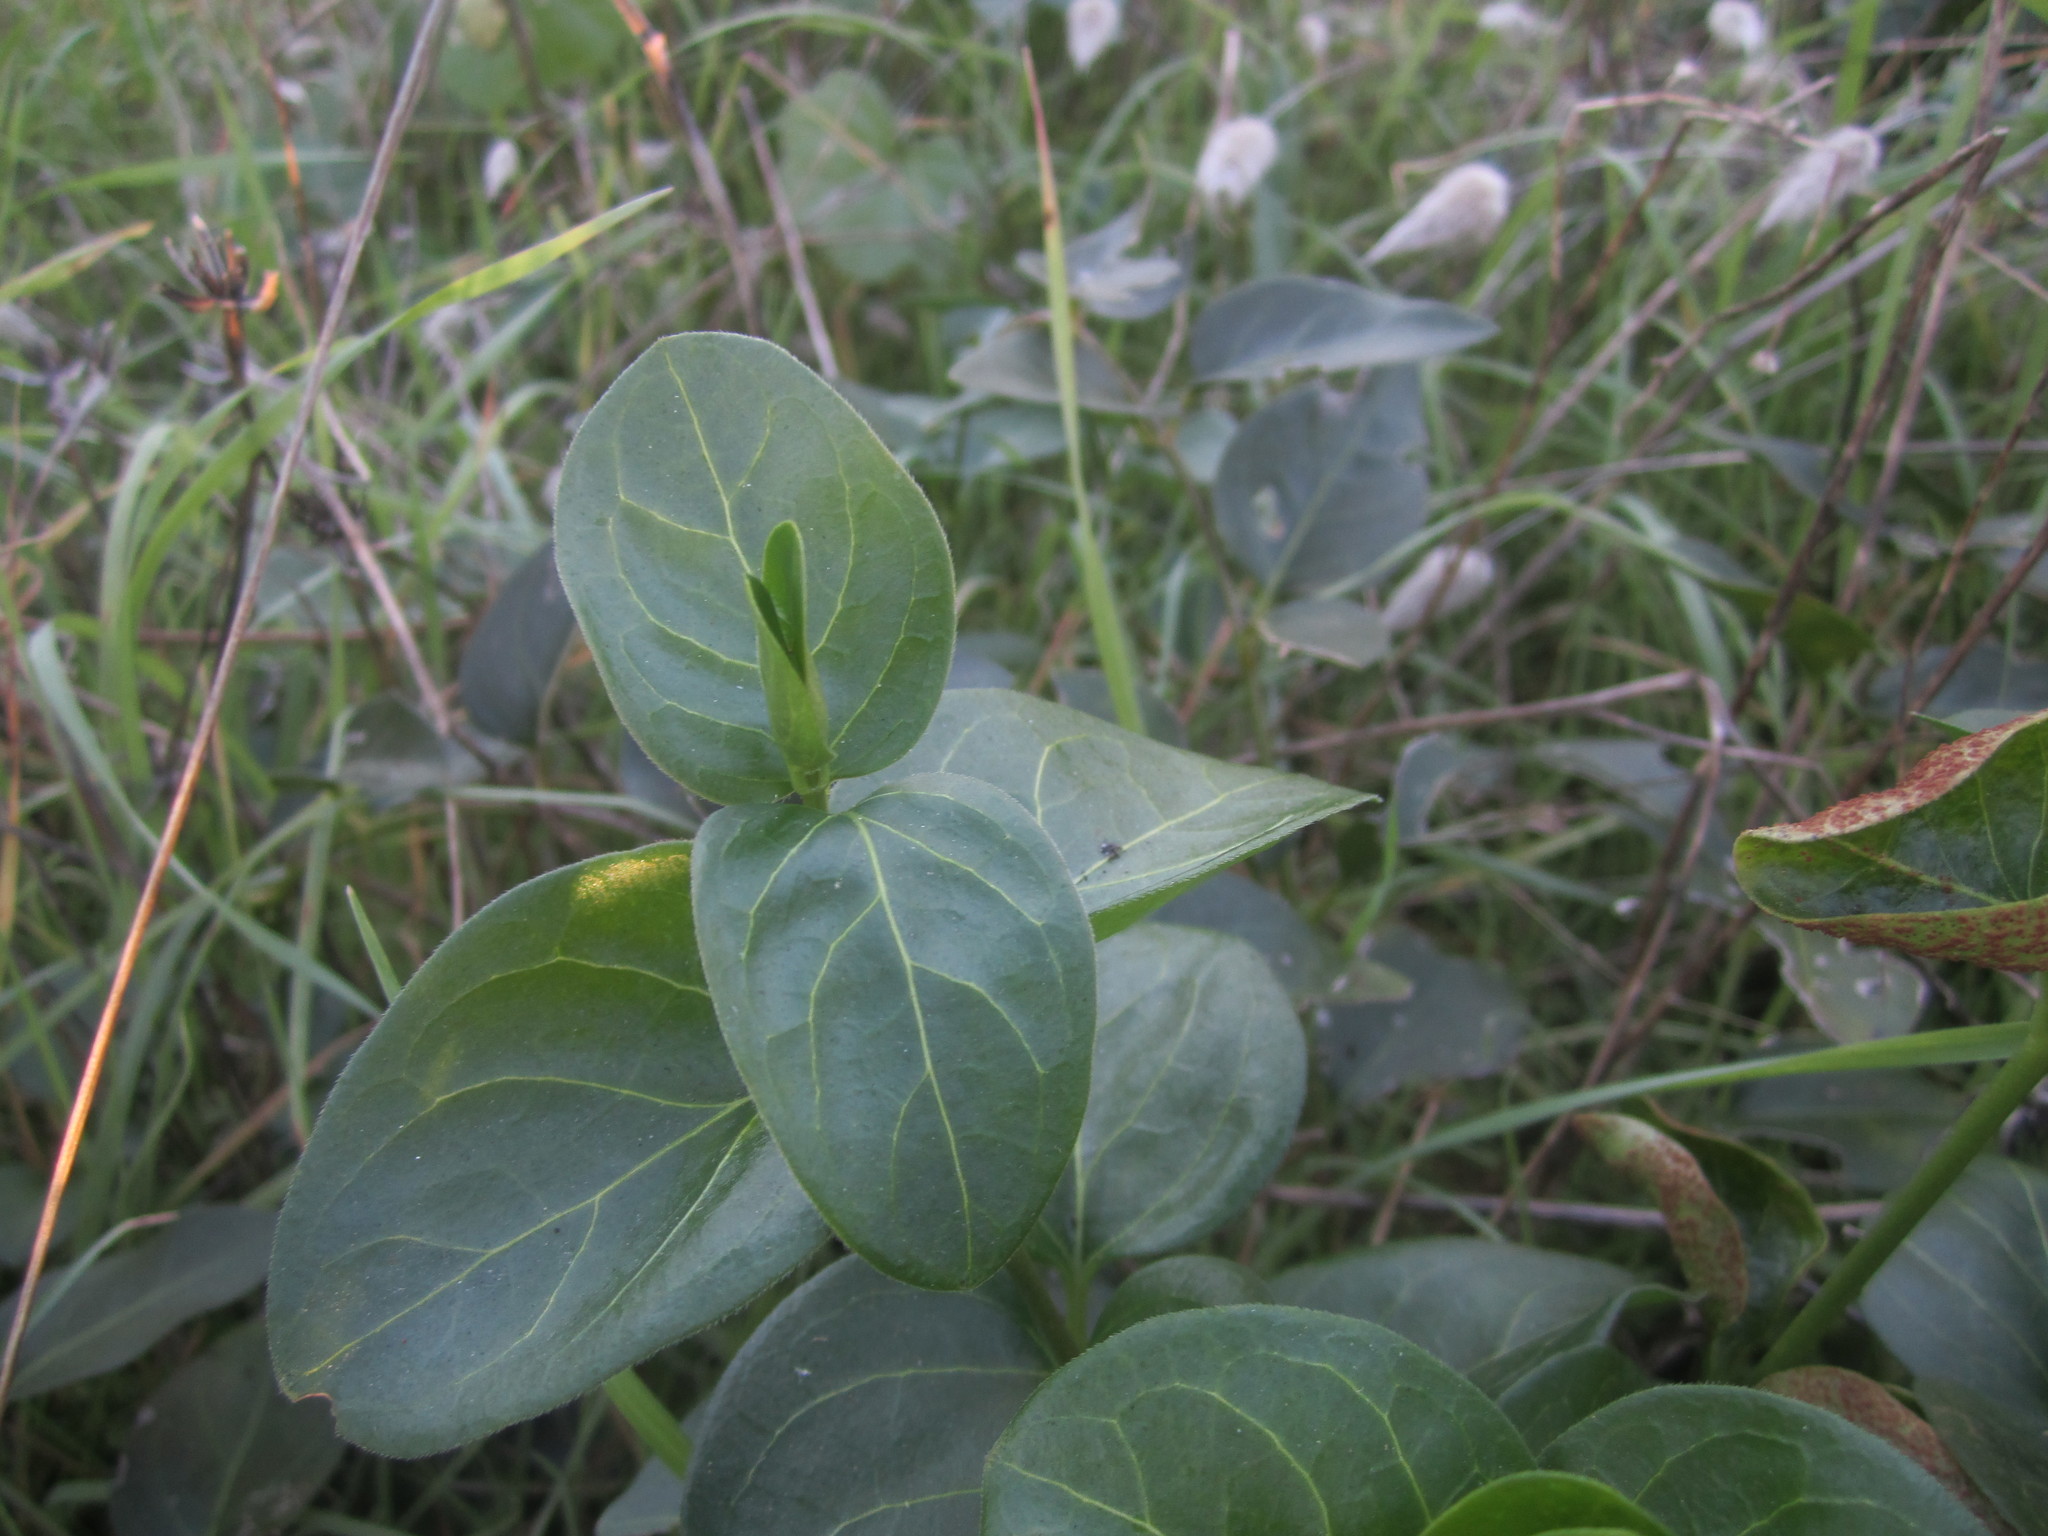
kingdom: Plantae
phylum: Tracheophyta
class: Magnoliopsida
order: Gentianales
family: Apocynaceae
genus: Vinca
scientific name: Vinca major
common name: Greater periwinkle
